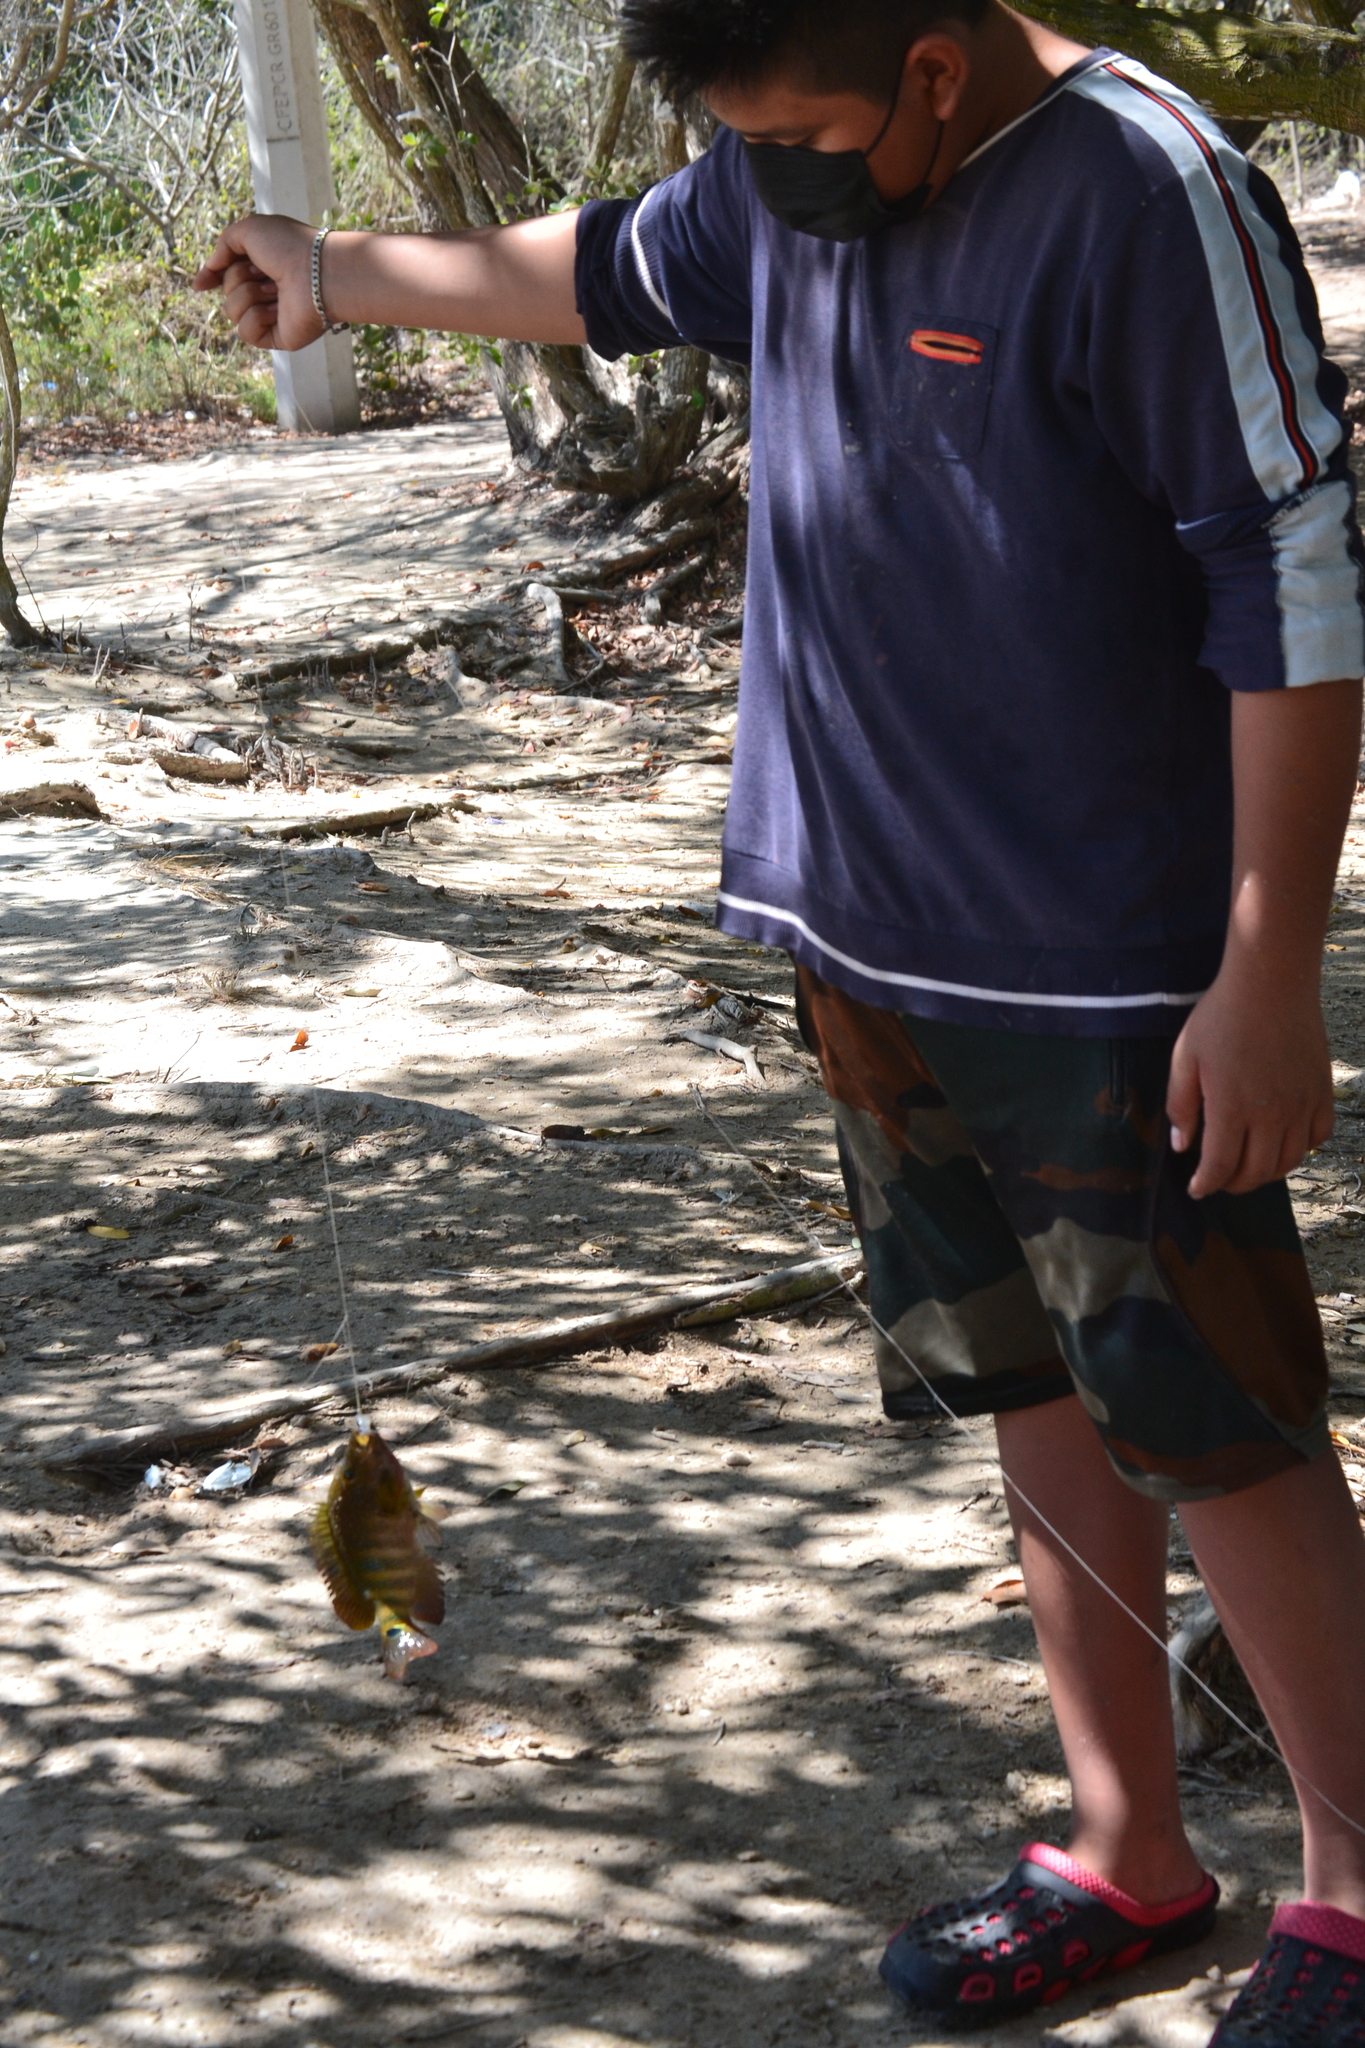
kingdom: Animalia
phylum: Chordata
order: Perciformes
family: Cichlidae
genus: Mayaheros
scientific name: Mayaheros urophthalmus
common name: Mayan cichlid
